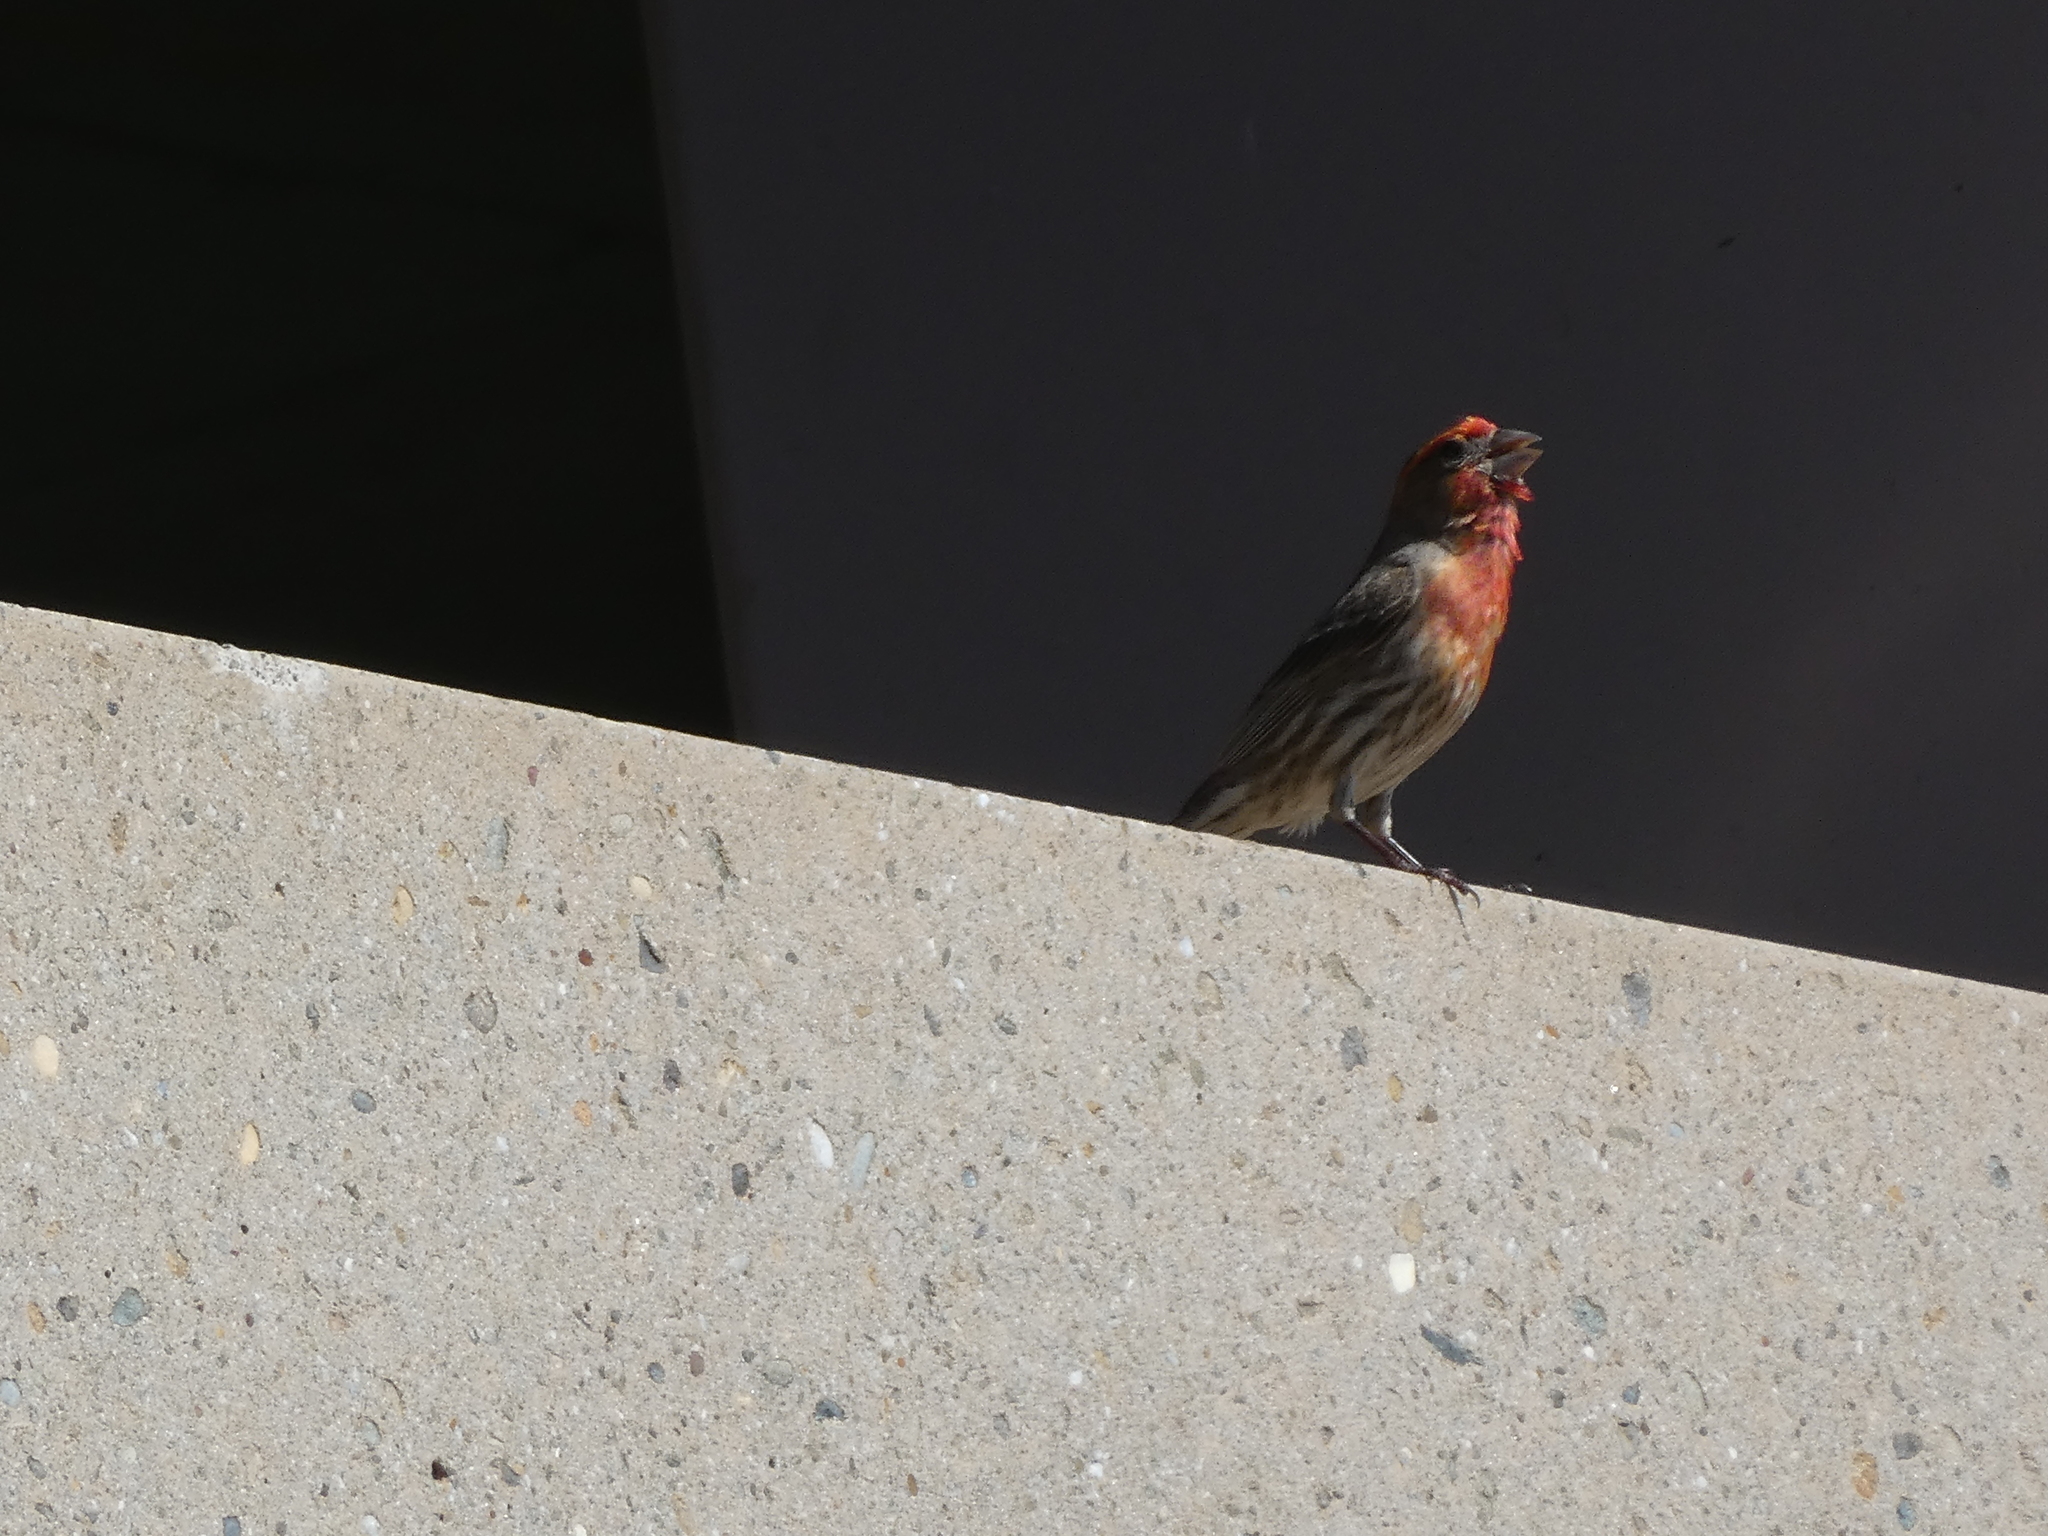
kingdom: Animalia
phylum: Chordata
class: Aves
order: Passeriformes
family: Fringillidae
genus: Haemorhous
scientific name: Haemorhous mexicanus
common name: House finch
